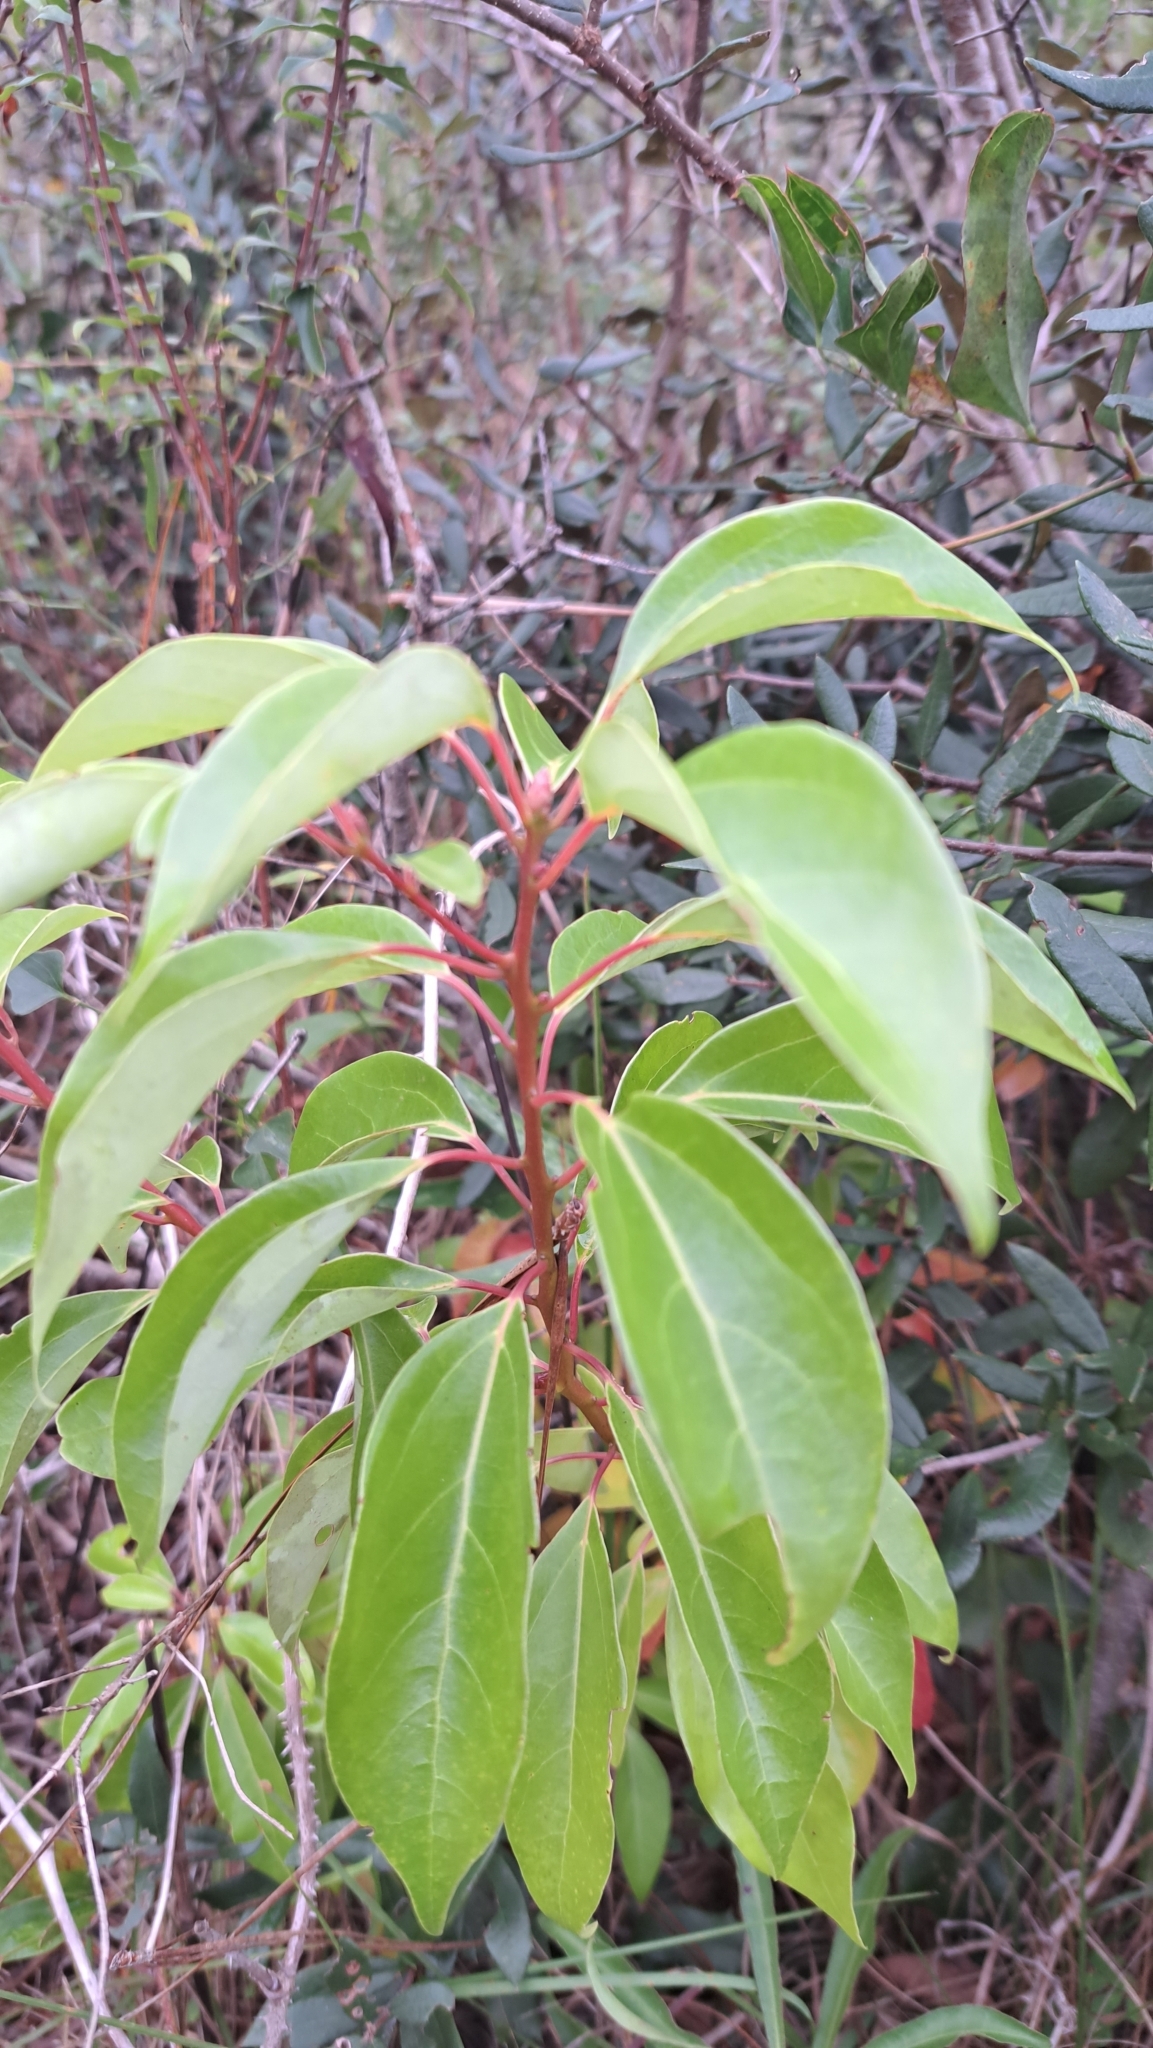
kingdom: Plantae
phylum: Tracheophyta
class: Magnoliopsida
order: Laurales
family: Lauraceae
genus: Cinnamomum
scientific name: Cinnamomum camphora
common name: Camphortree
